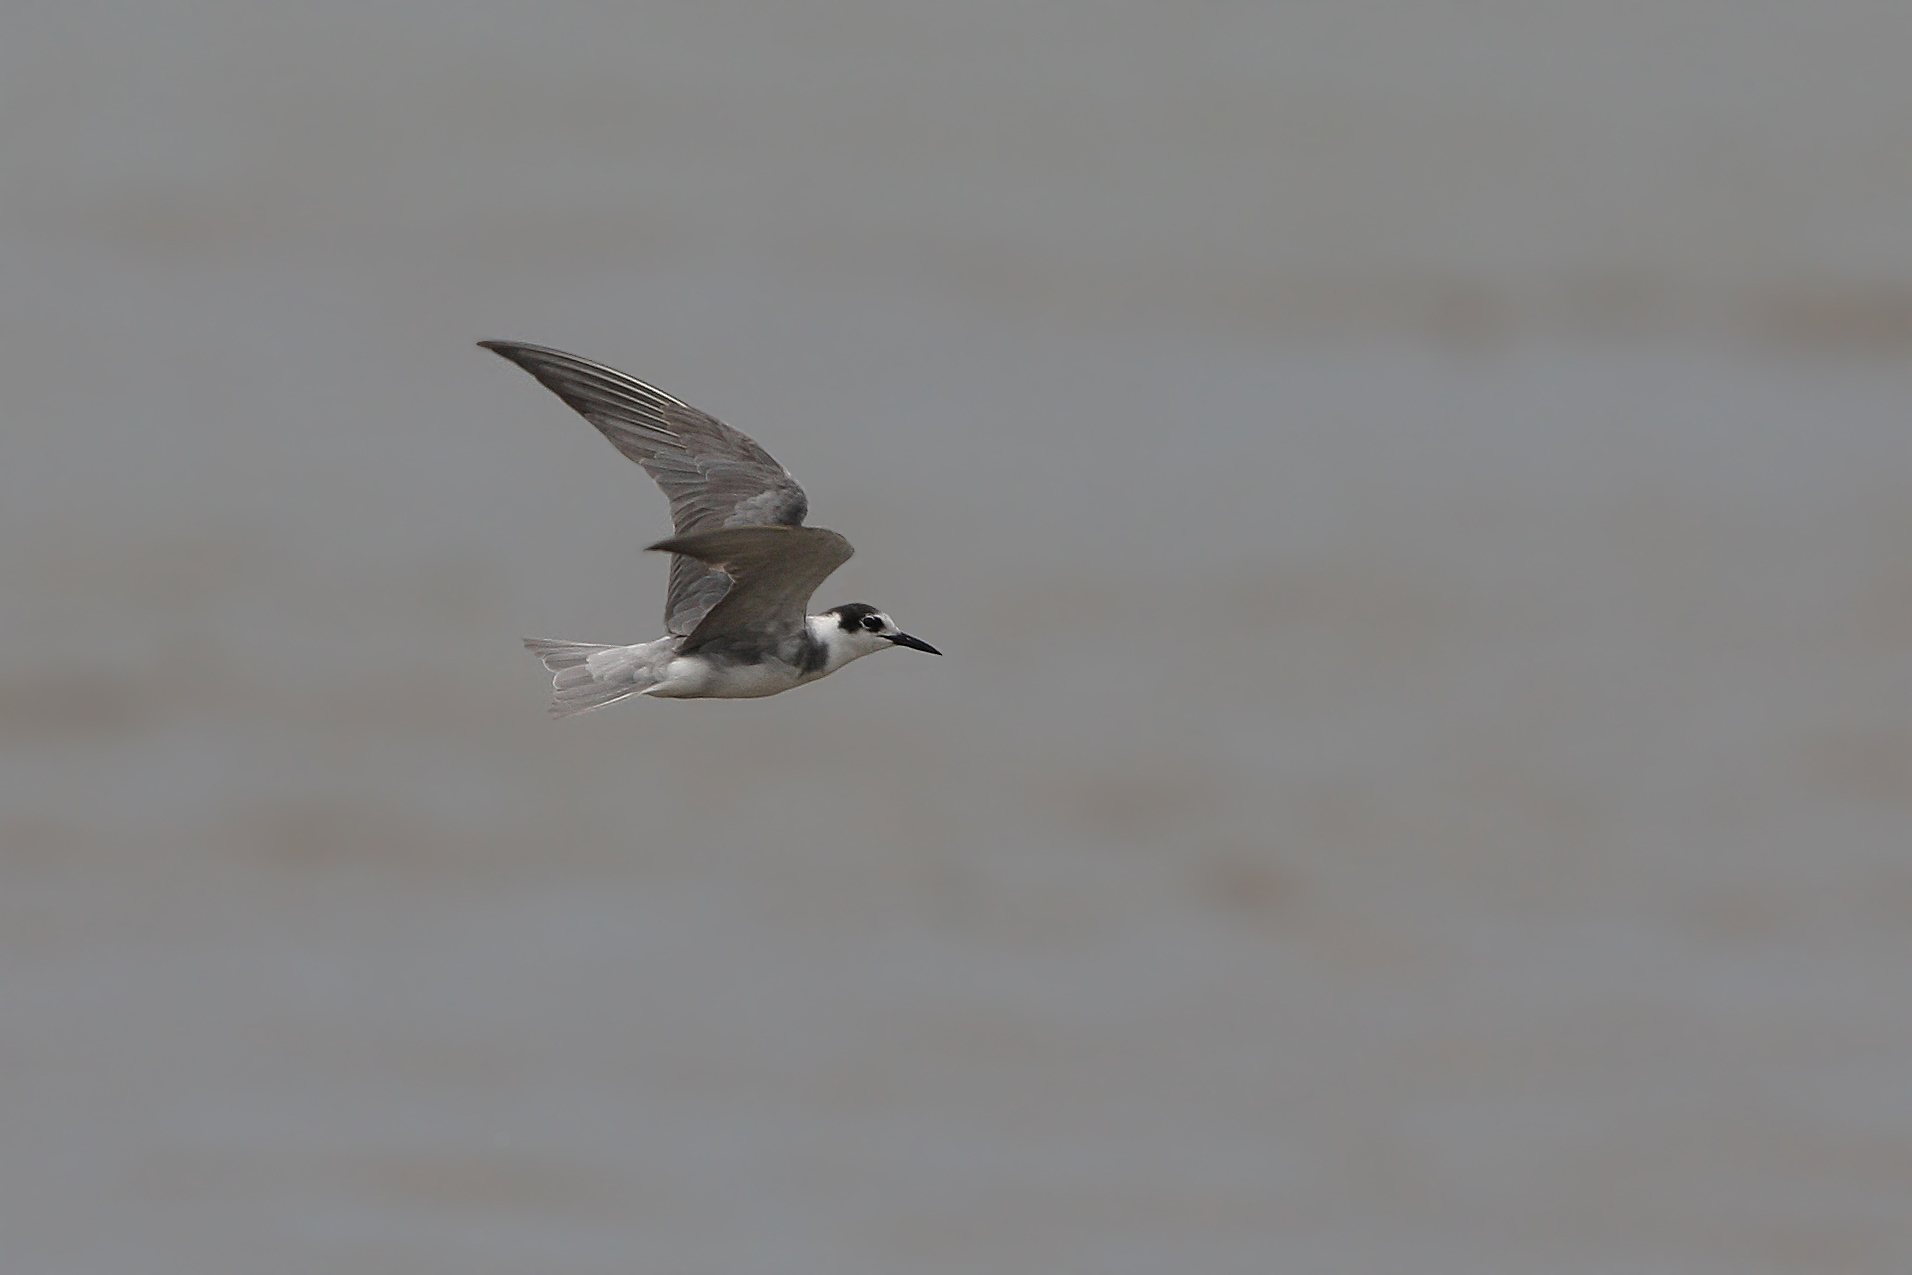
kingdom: Animalia
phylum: Chordata
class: Aves
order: Charadriiformes
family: Laridae
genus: Chlidonias
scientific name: Chlidonias niger
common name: Black tern
